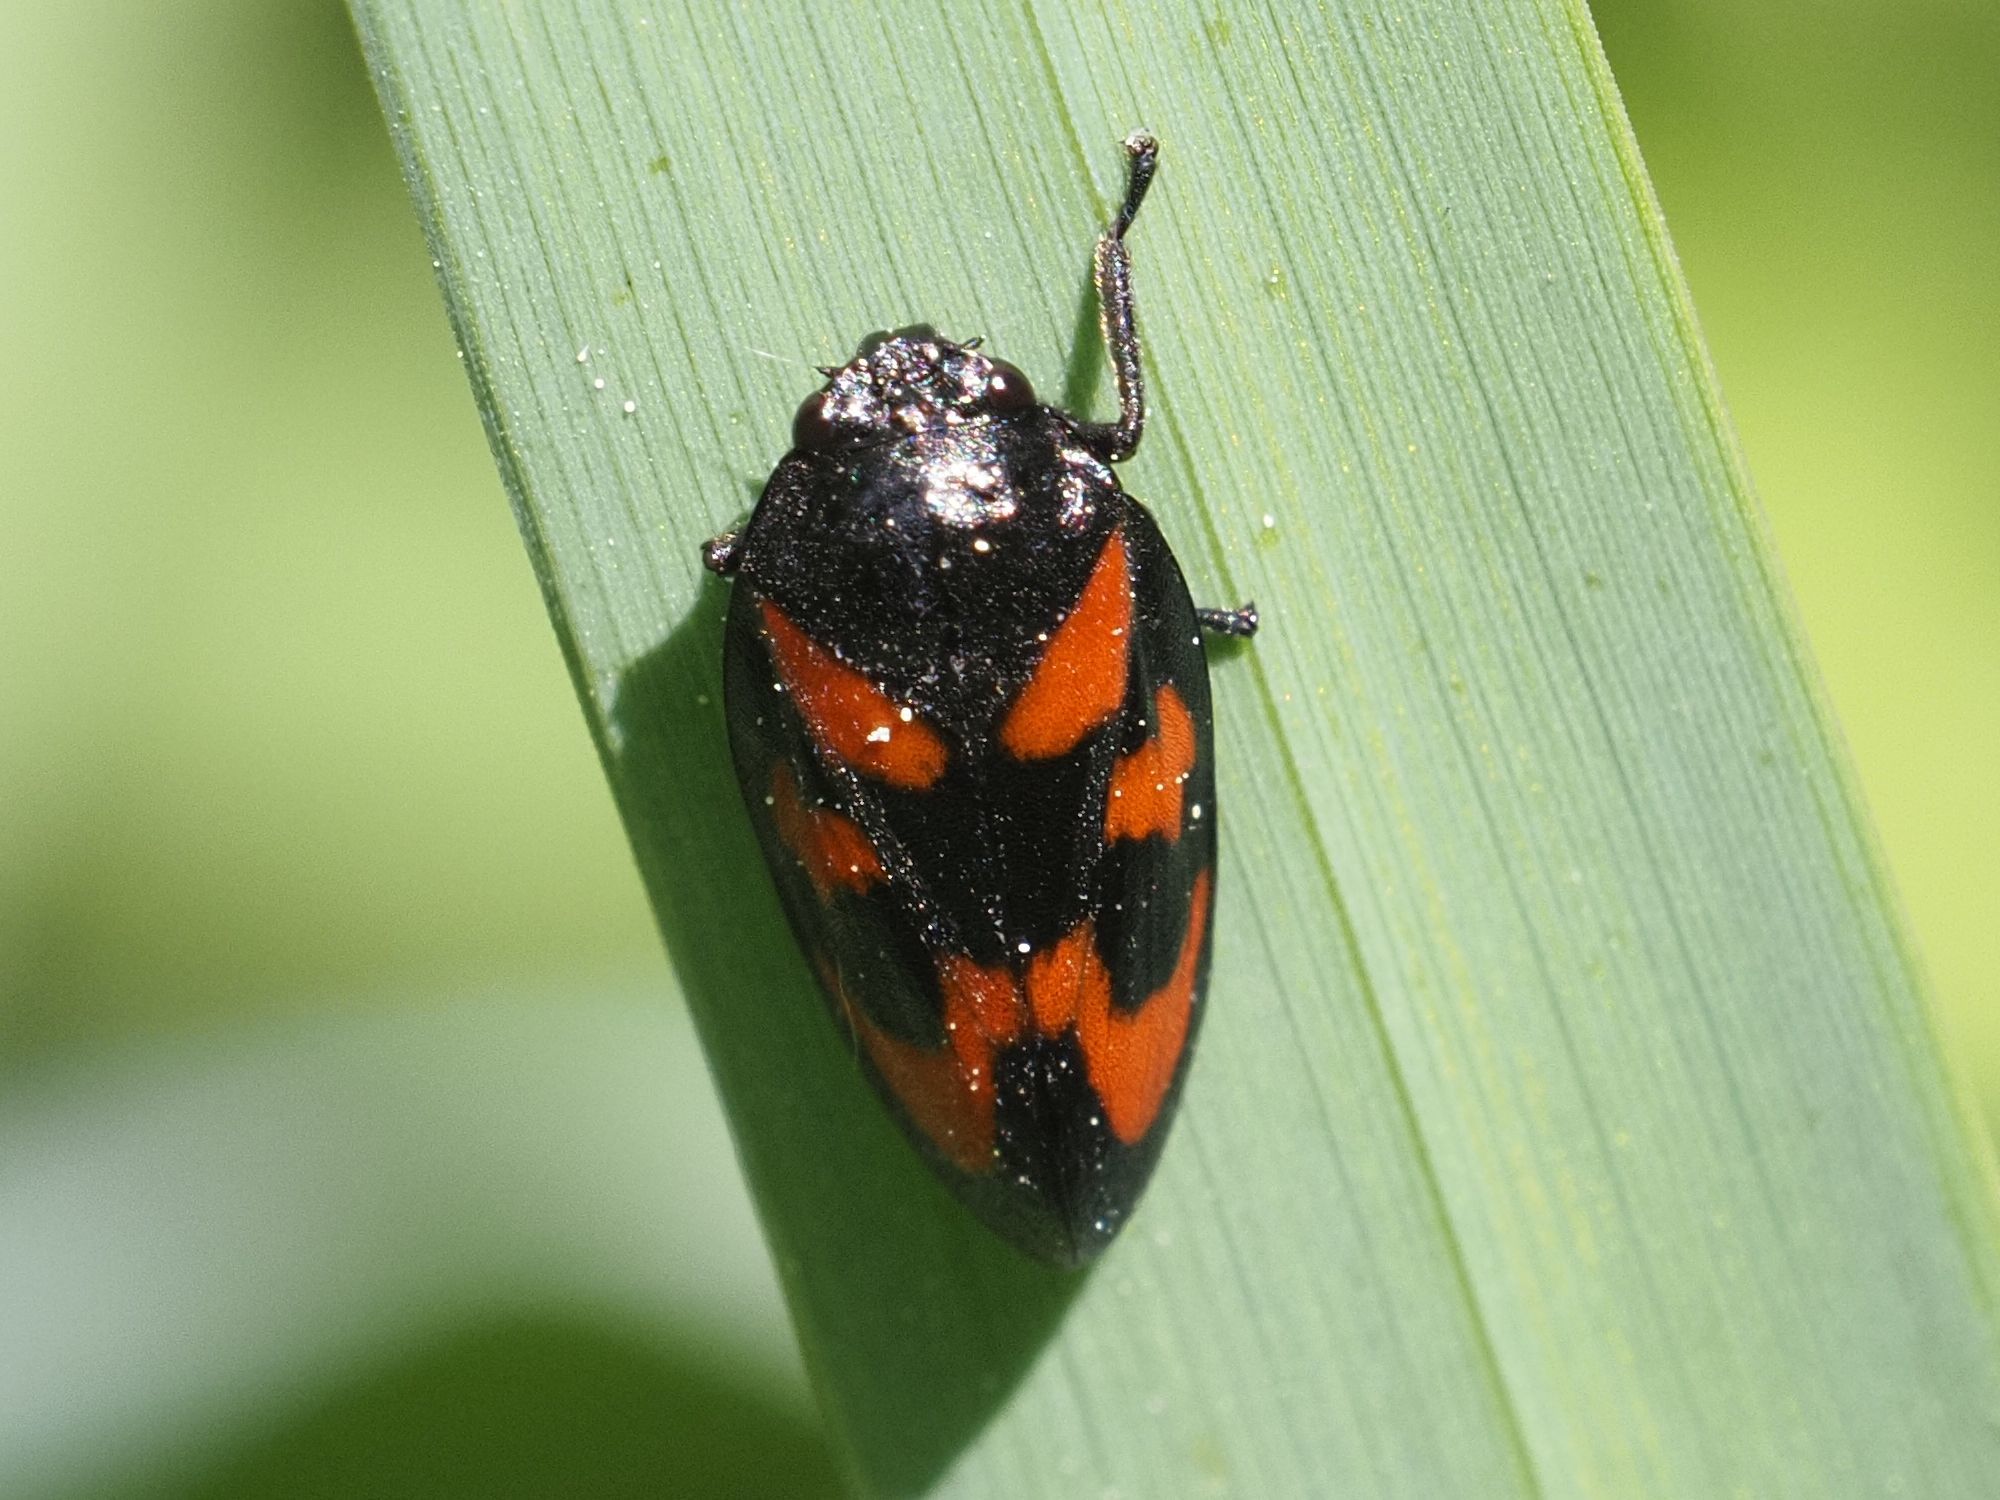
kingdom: Animalia
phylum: Arthropoda
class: Insecta
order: Hemiptera
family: Cercopidae
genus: Cercopis
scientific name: Cercopis vulnerata
